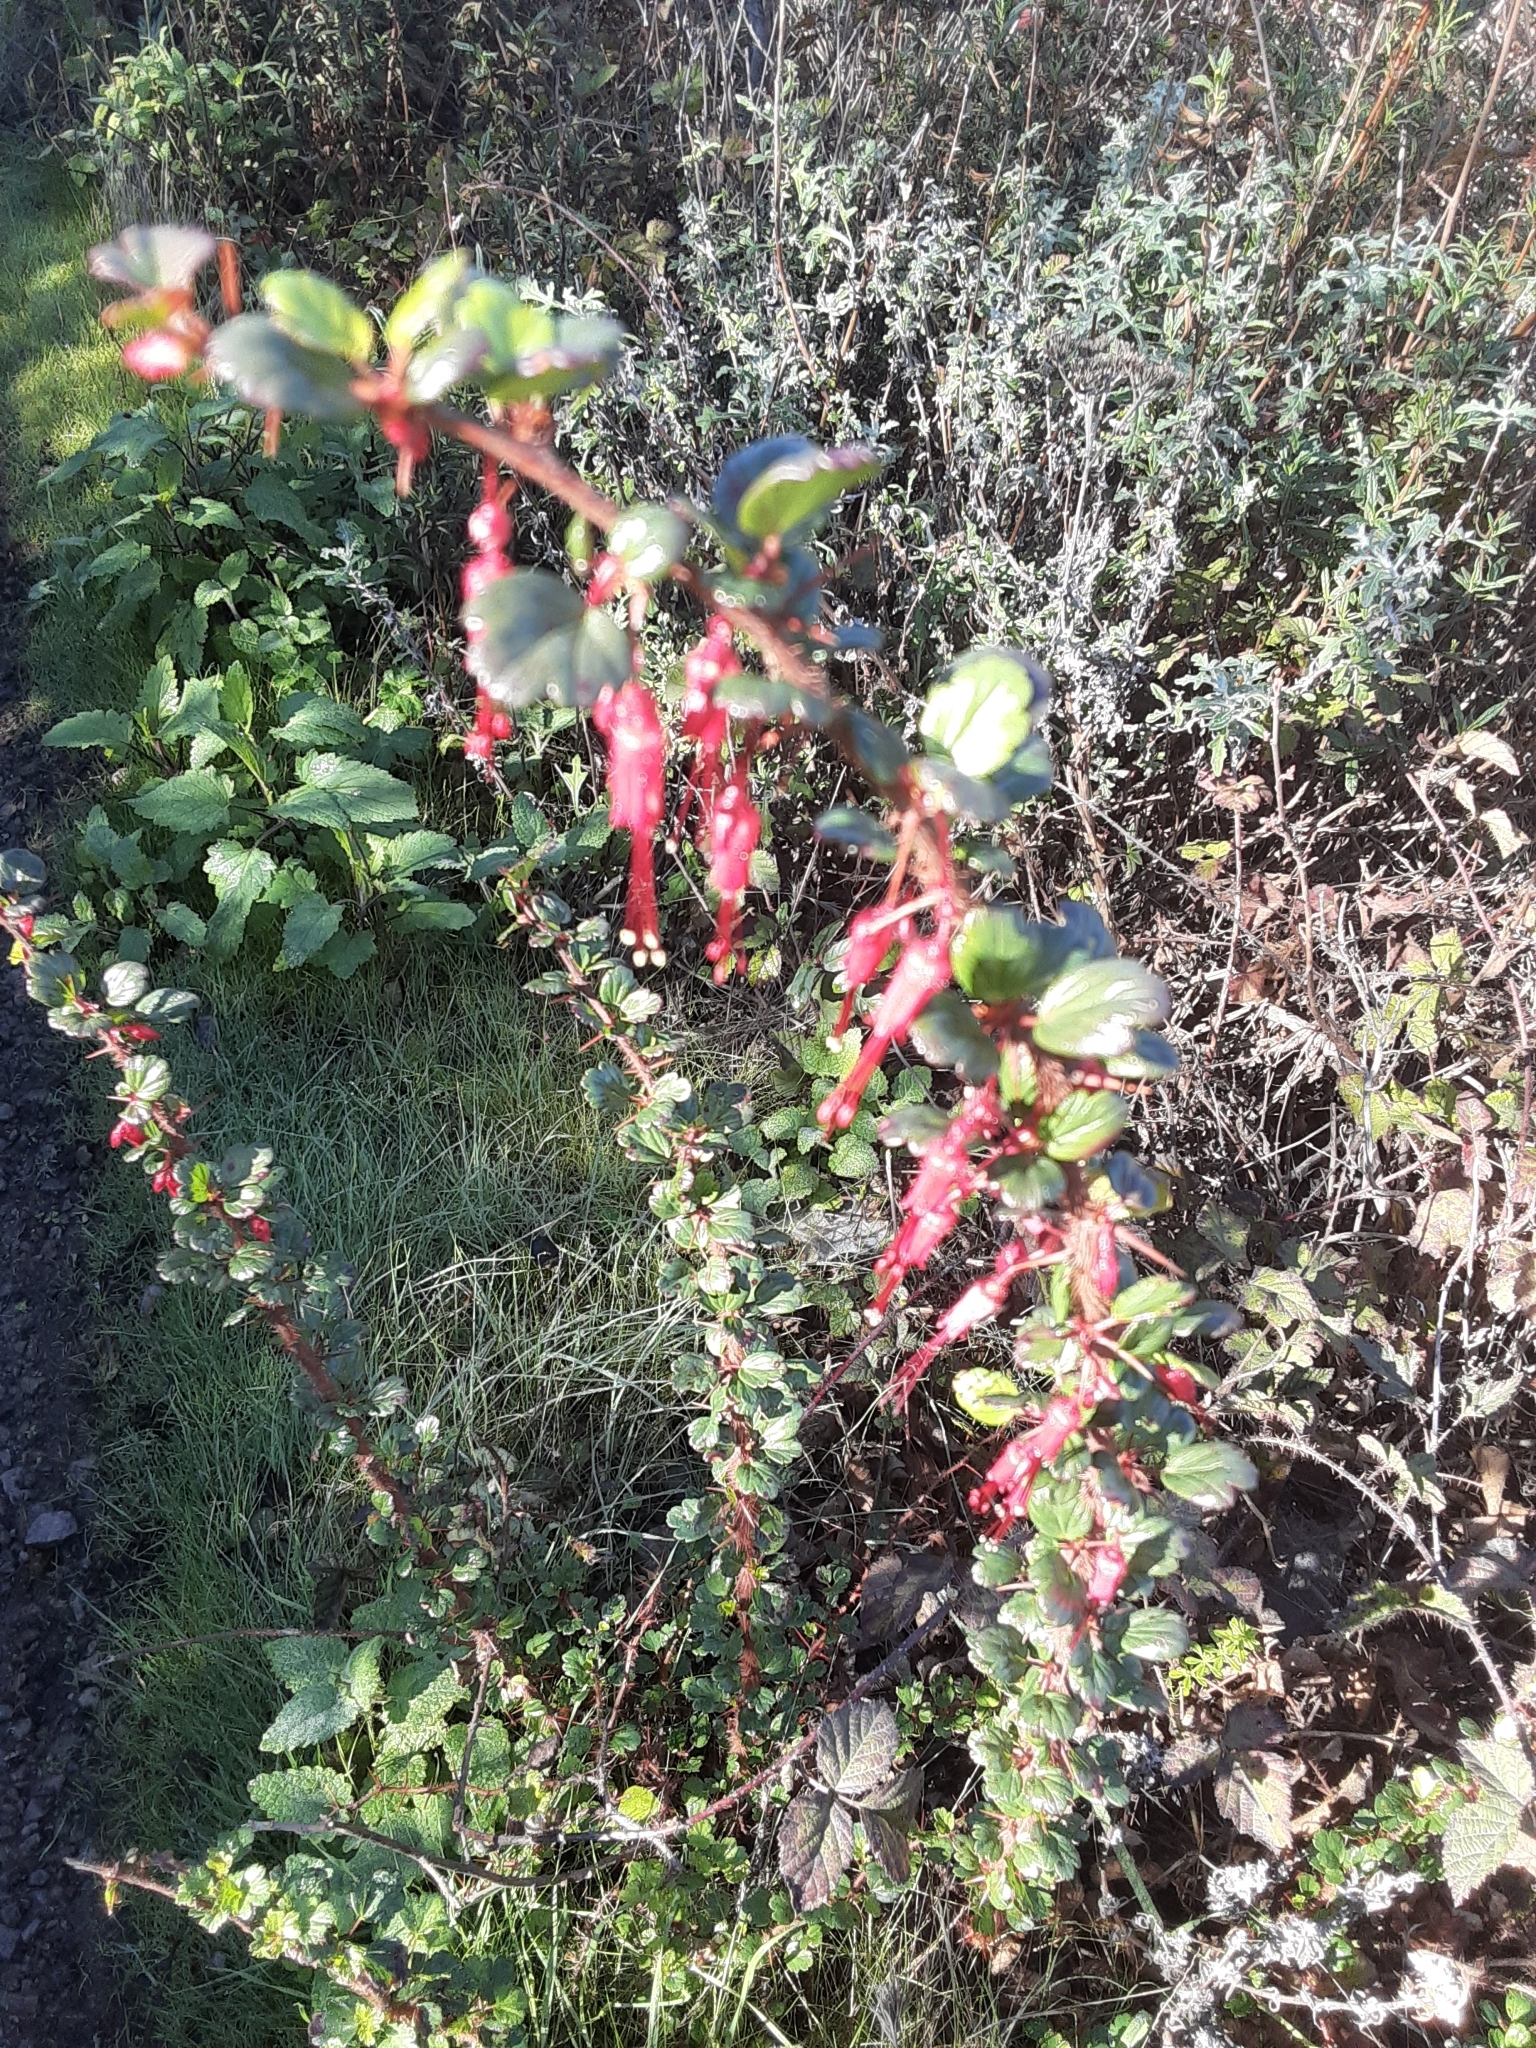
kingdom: Plantae
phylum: Tracheophyta
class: Magnoliopsida
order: Saxifragales
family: Grossulariaceae
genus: Ribes
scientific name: Ribes speciosum
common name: Fuchsia-flower gooseberry
